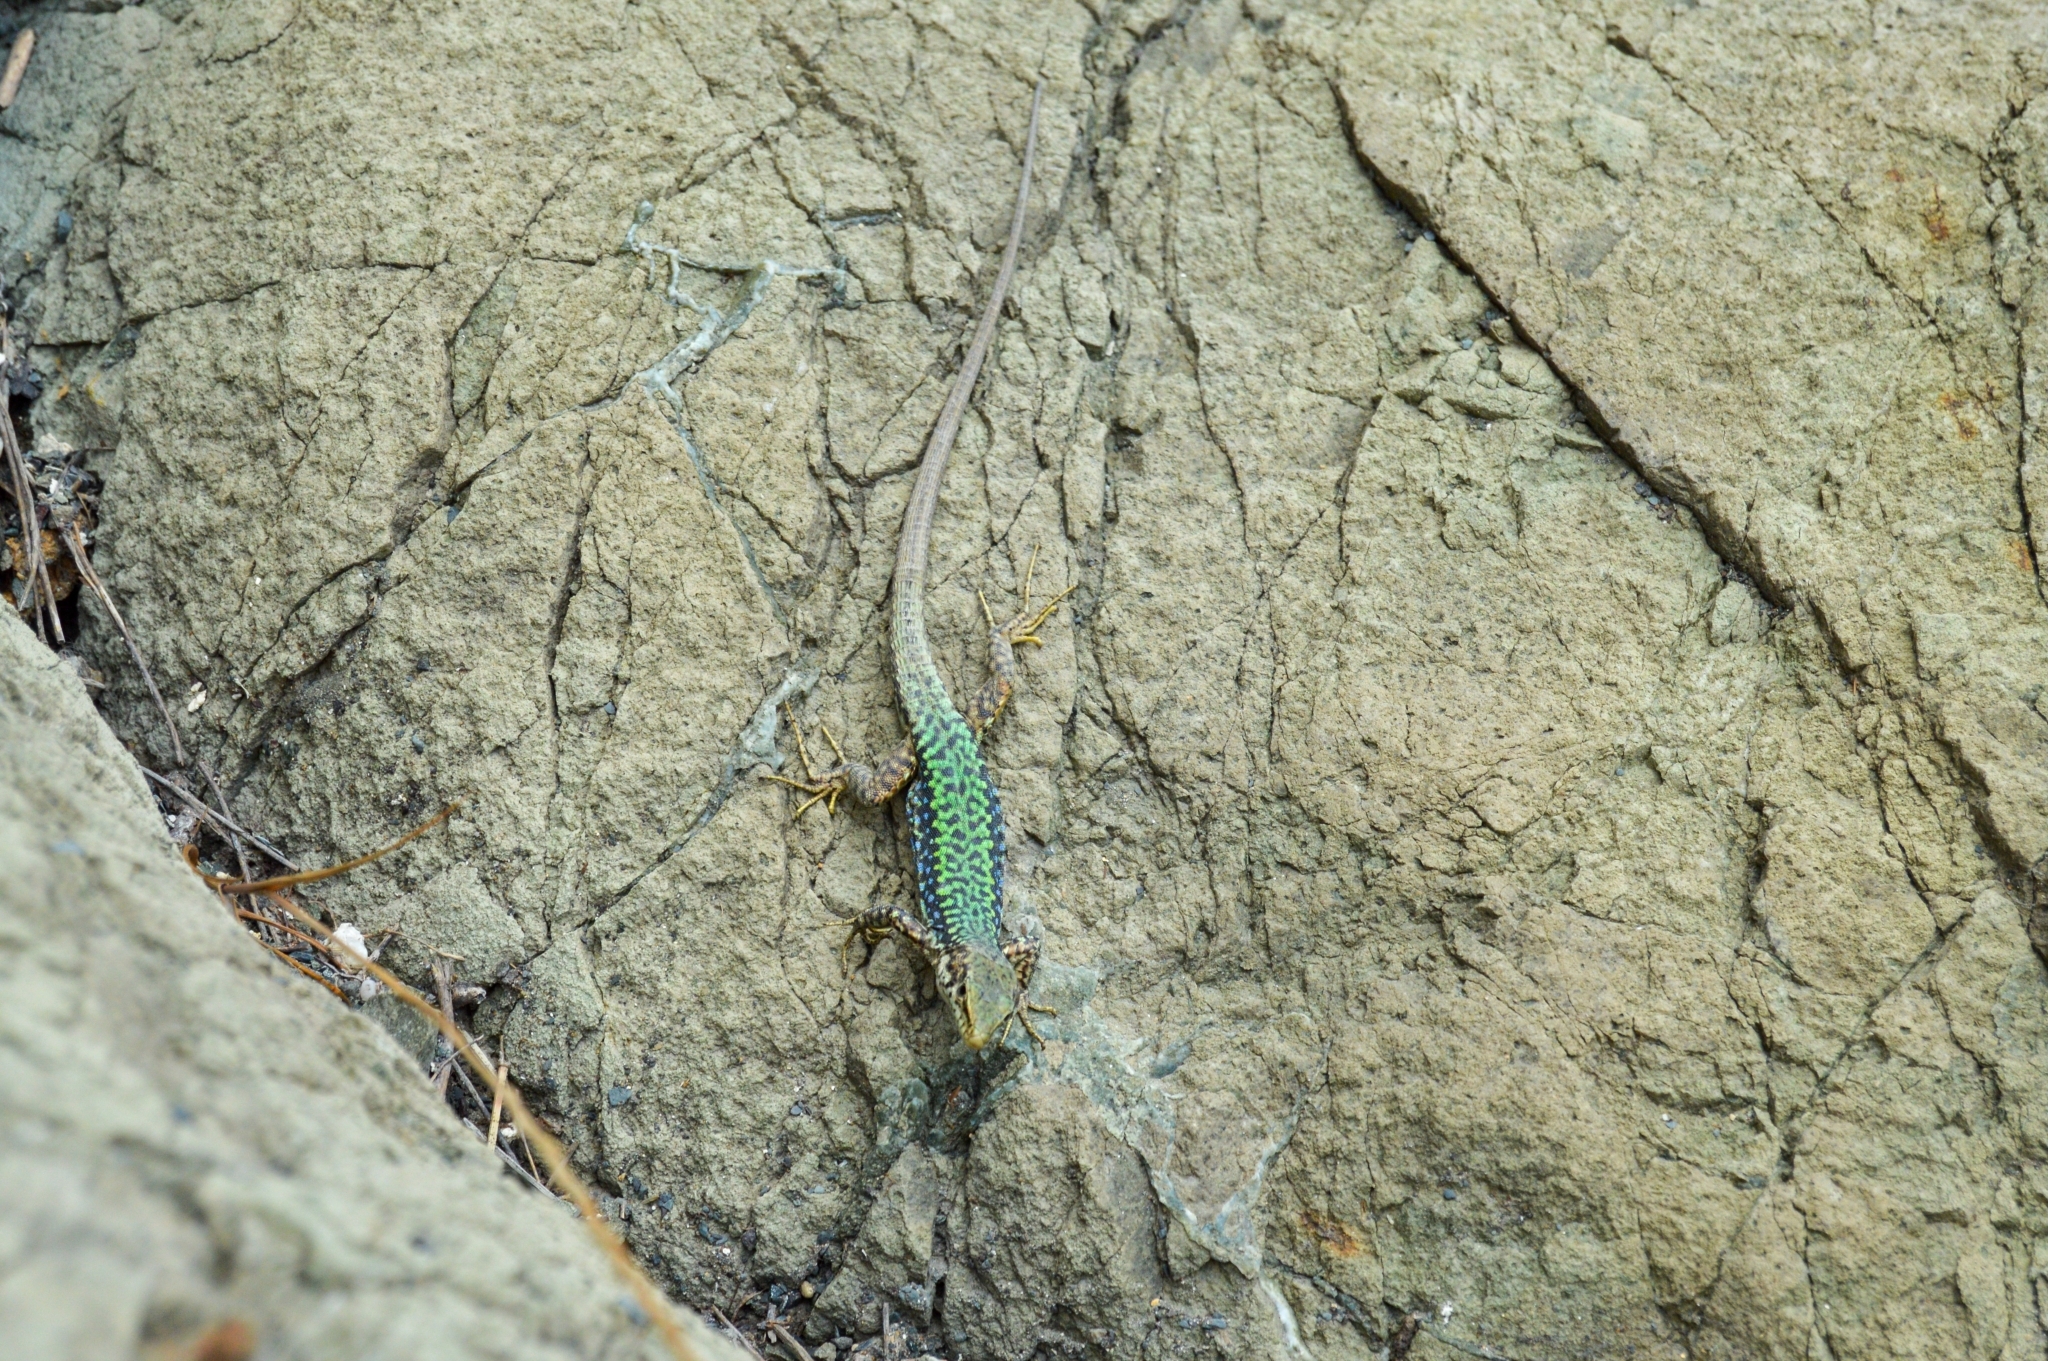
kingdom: Animalia
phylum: Chordata
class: Squamata
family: Lacertidae
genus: Darevskia
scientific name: Darevskia lindholmi
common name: Crimean rock lizard
